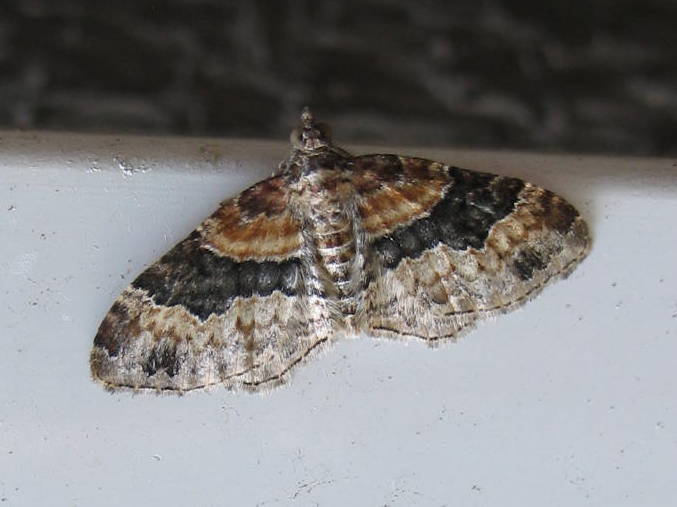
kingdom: Animalia
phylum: Arthropoda
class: Insecta
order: Lepidoptera
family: Geometridae
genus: Xanthorhoe
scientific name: Xanthorhoe ferrugata
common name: Dark-barred twin-spot carpet
